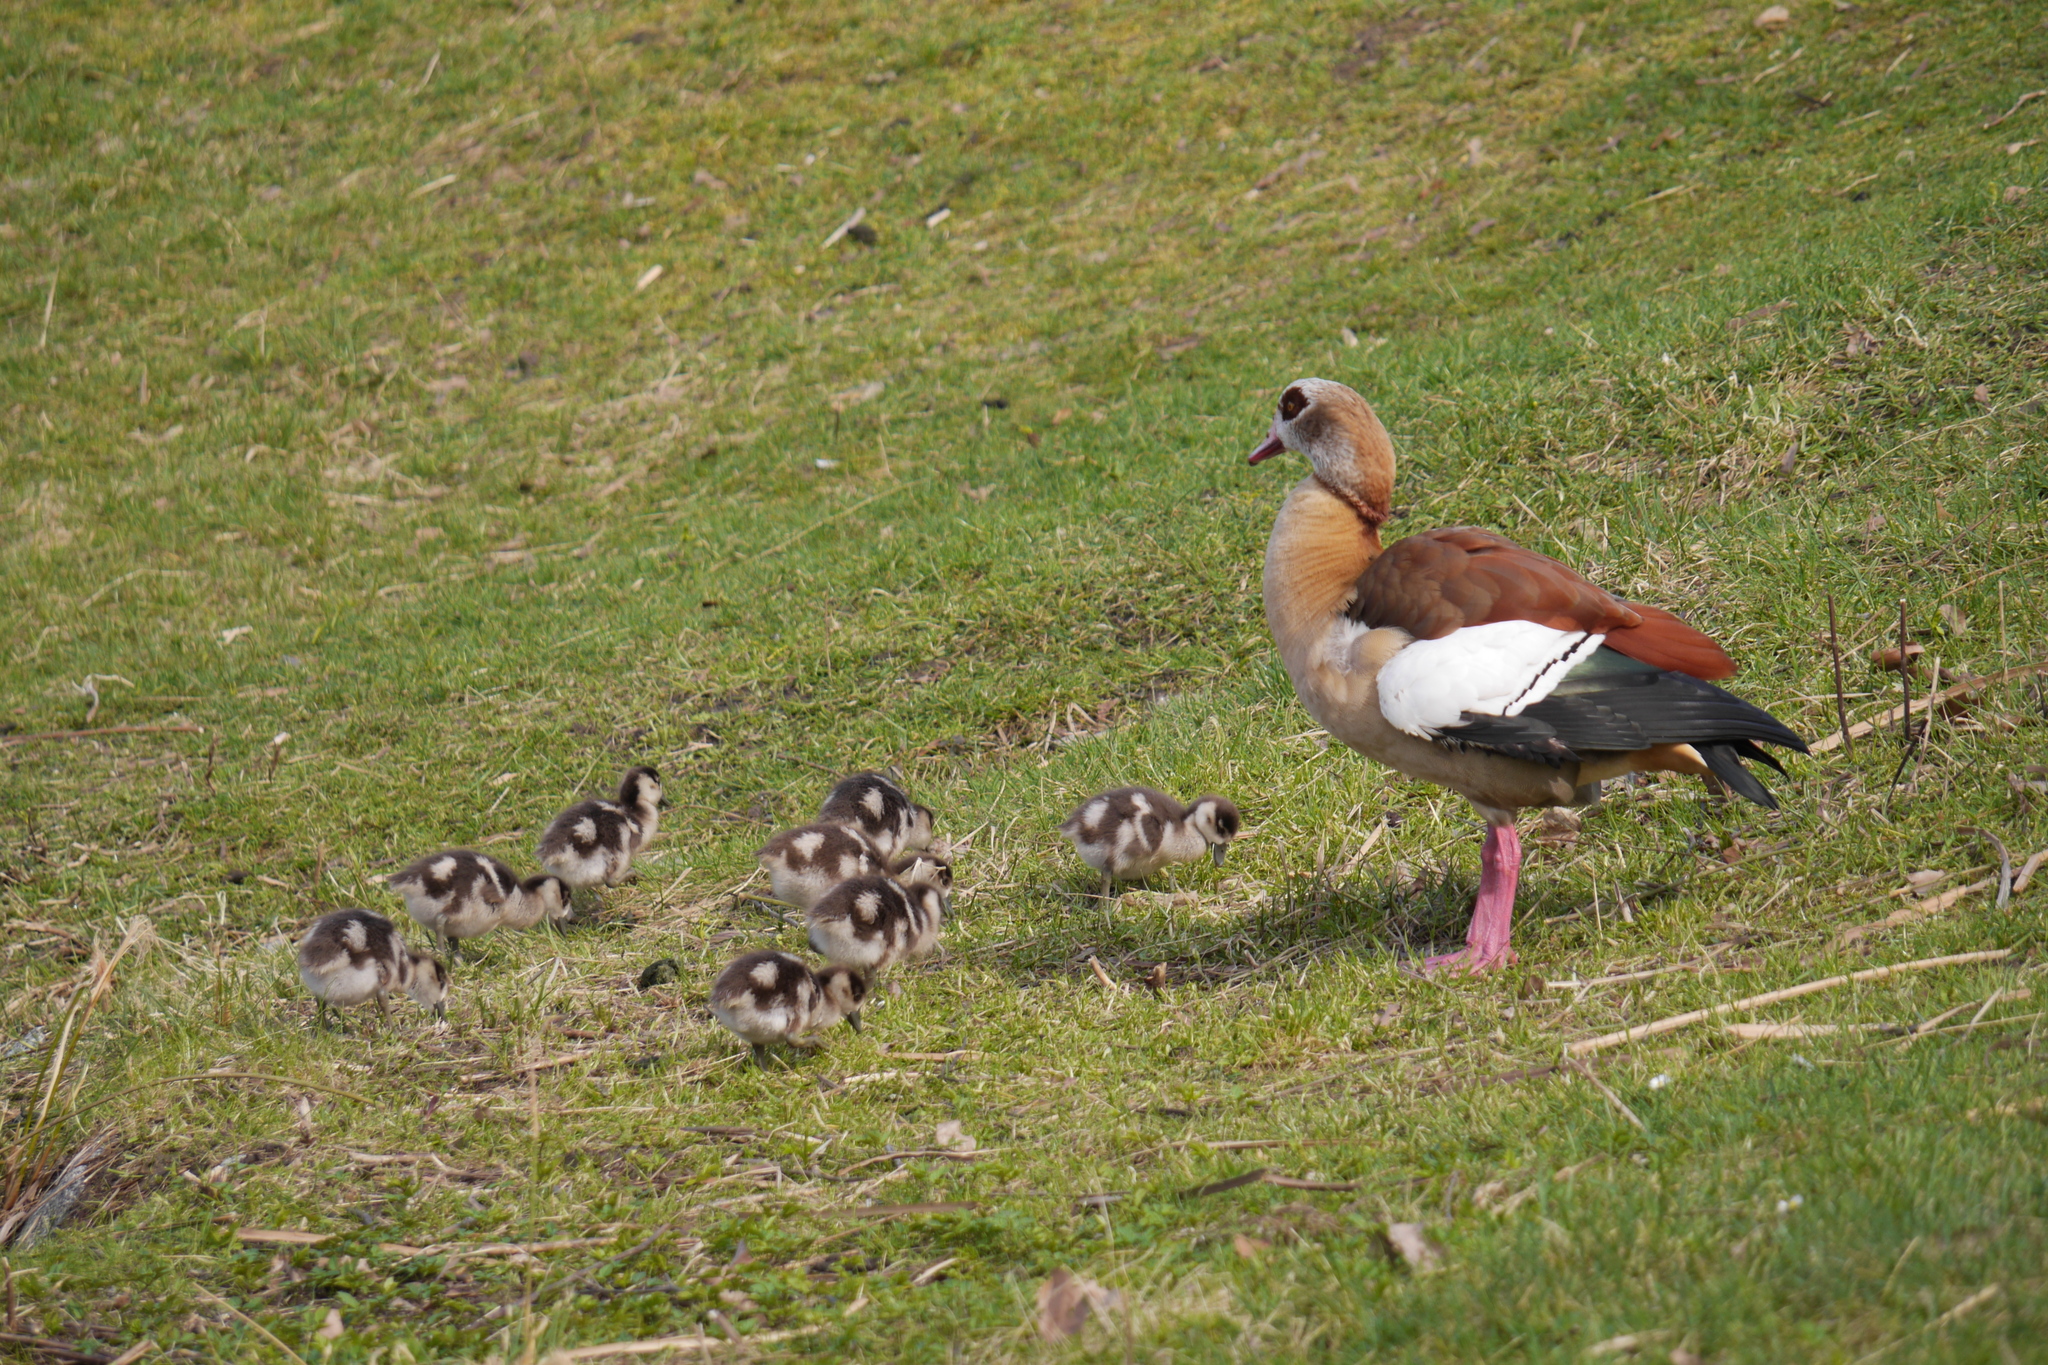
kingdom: Animalia
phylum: Chordata
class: Aves
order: Anseriformes
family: Anatidae
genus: Alopochen
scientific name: Alopochen aegyptiaca
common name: Egyptian goose
